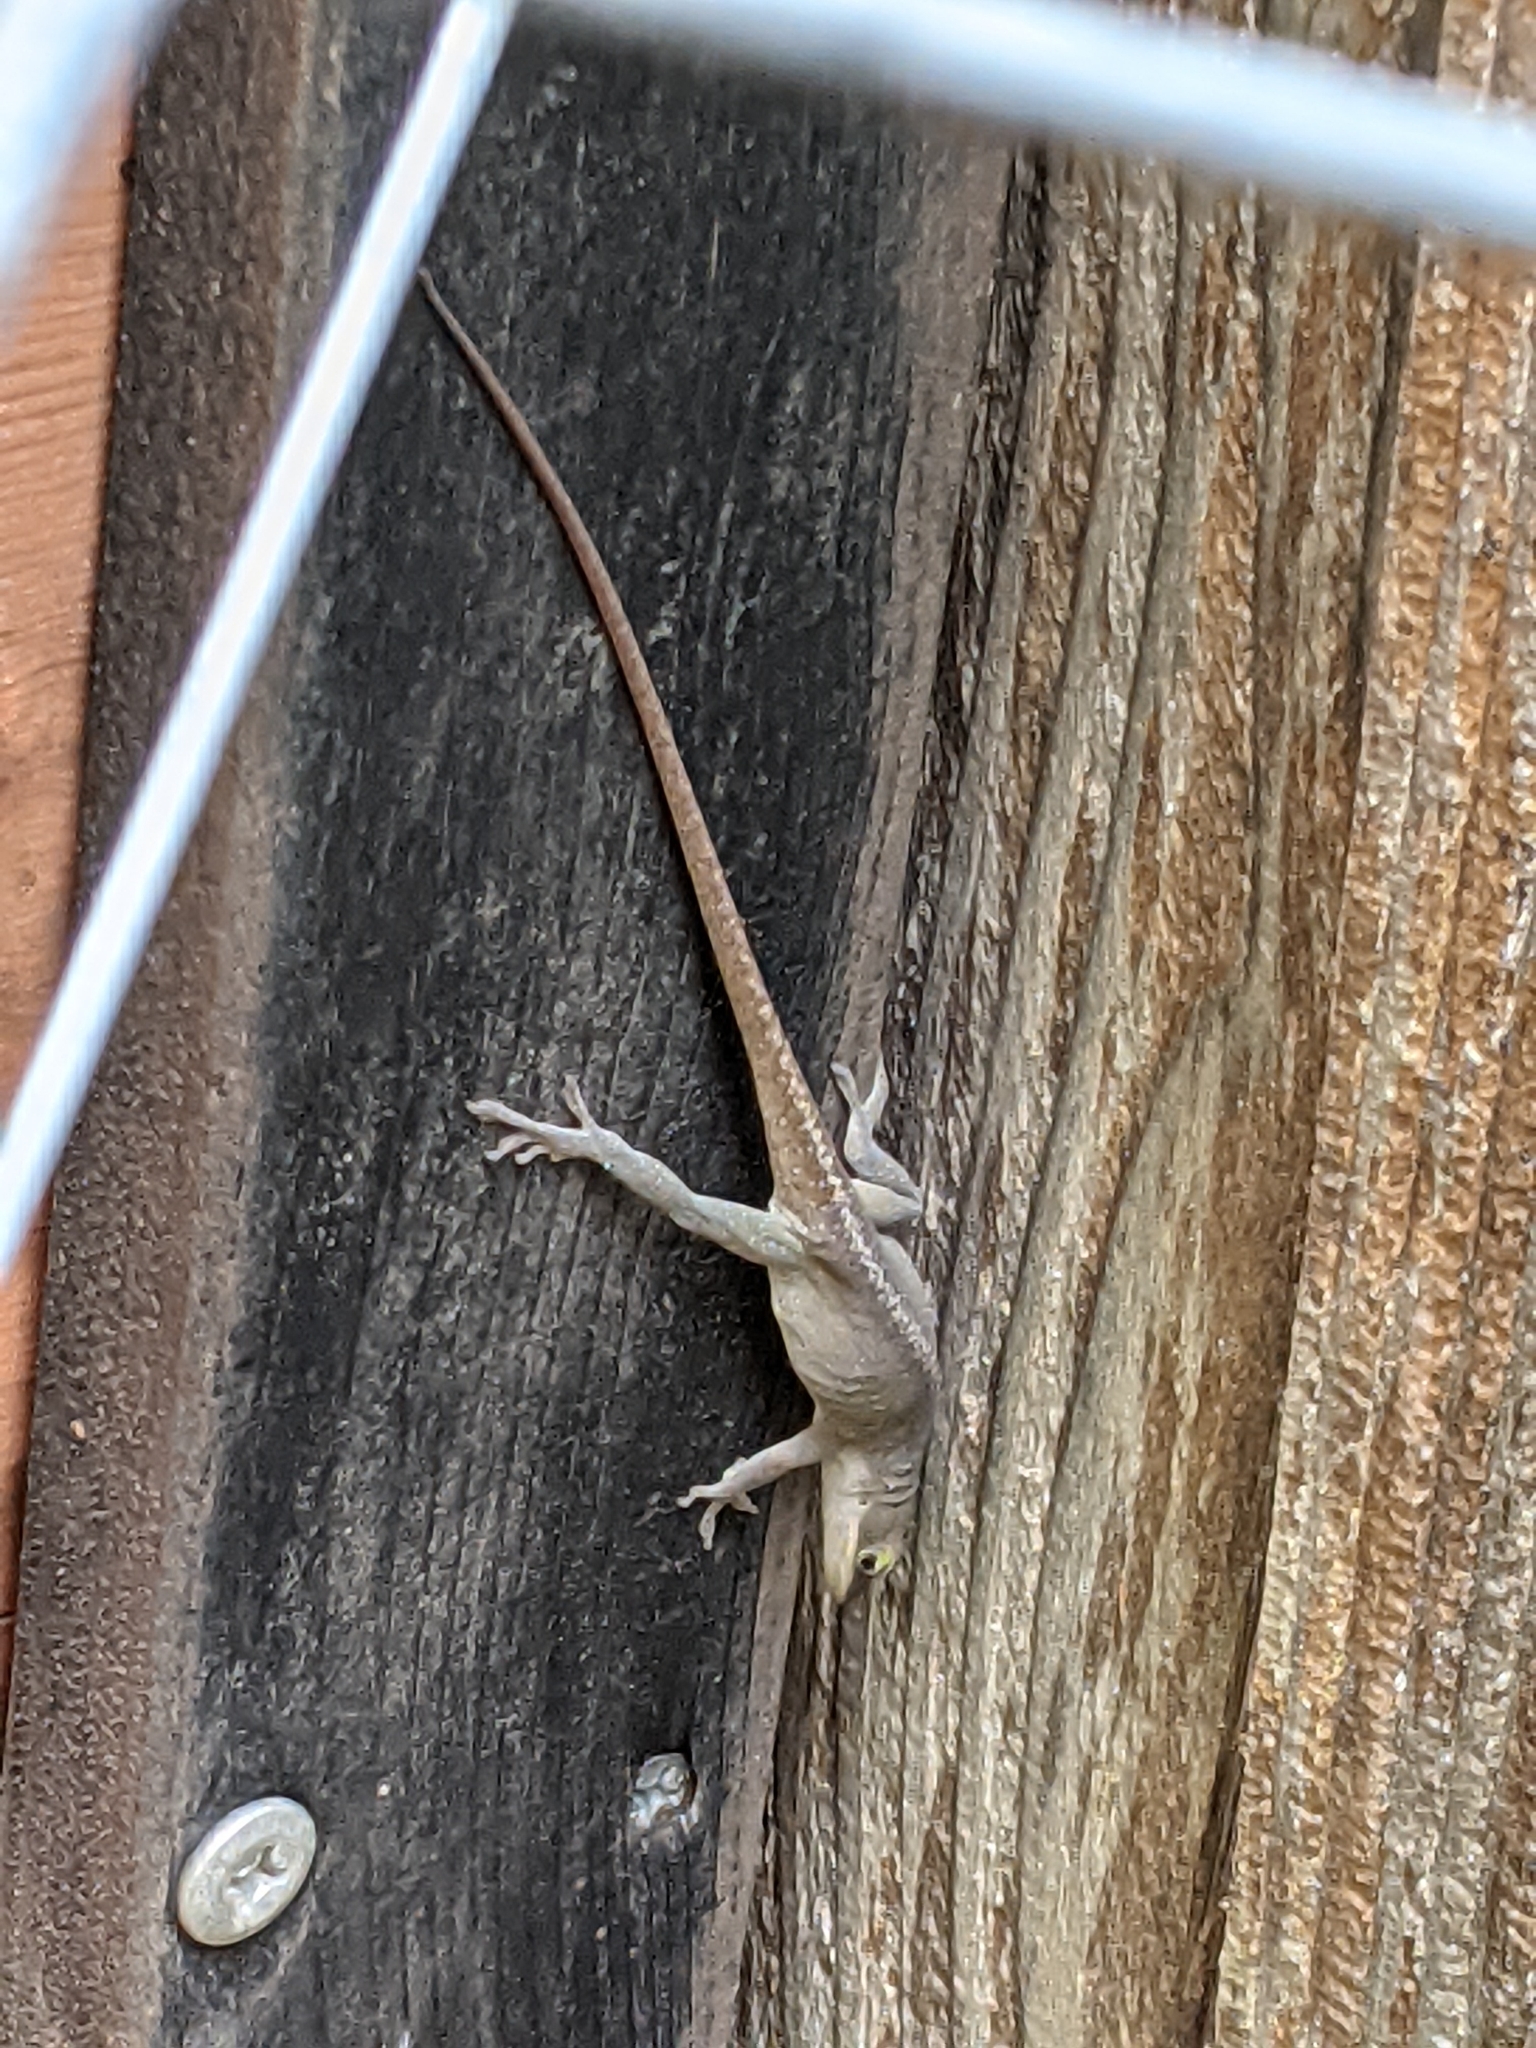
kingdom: Animalia
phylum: Chordata
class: Squamata
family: Dactyloidae
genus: Anolis
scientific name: Anolis carolinensis
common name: Green anole
